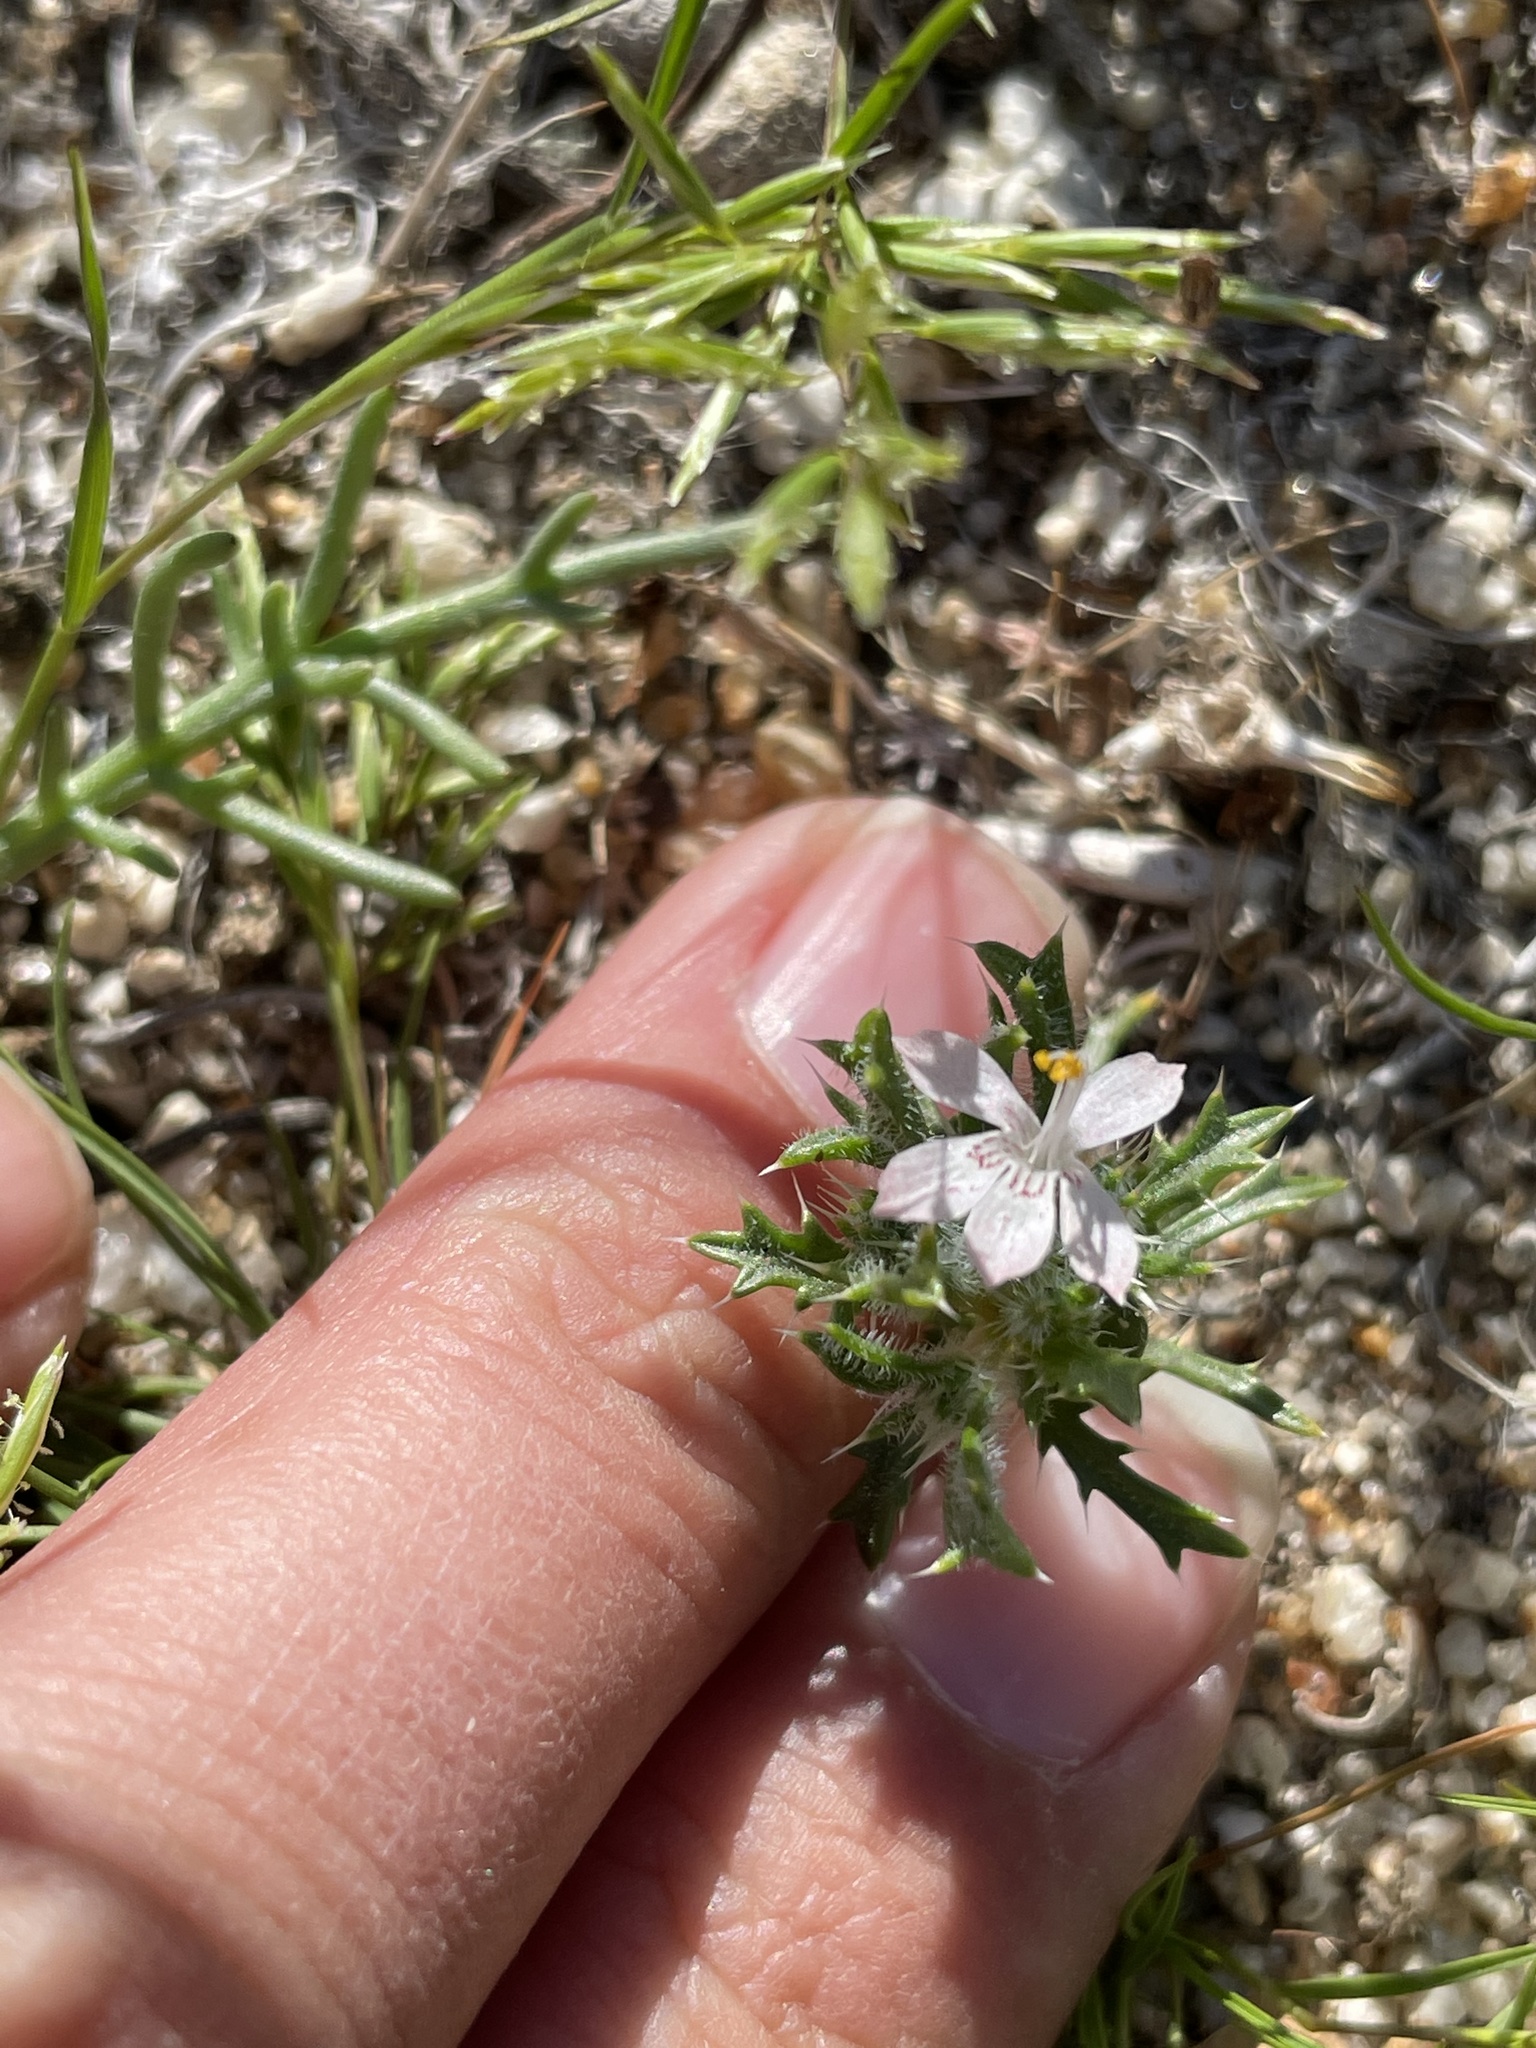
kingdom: Plantae
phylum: Tracheophyta
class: Magnoliopsida
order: Ericales
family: Polemoniaceae
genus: Loeseliastrum
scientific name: Loeseliastrum schottii
